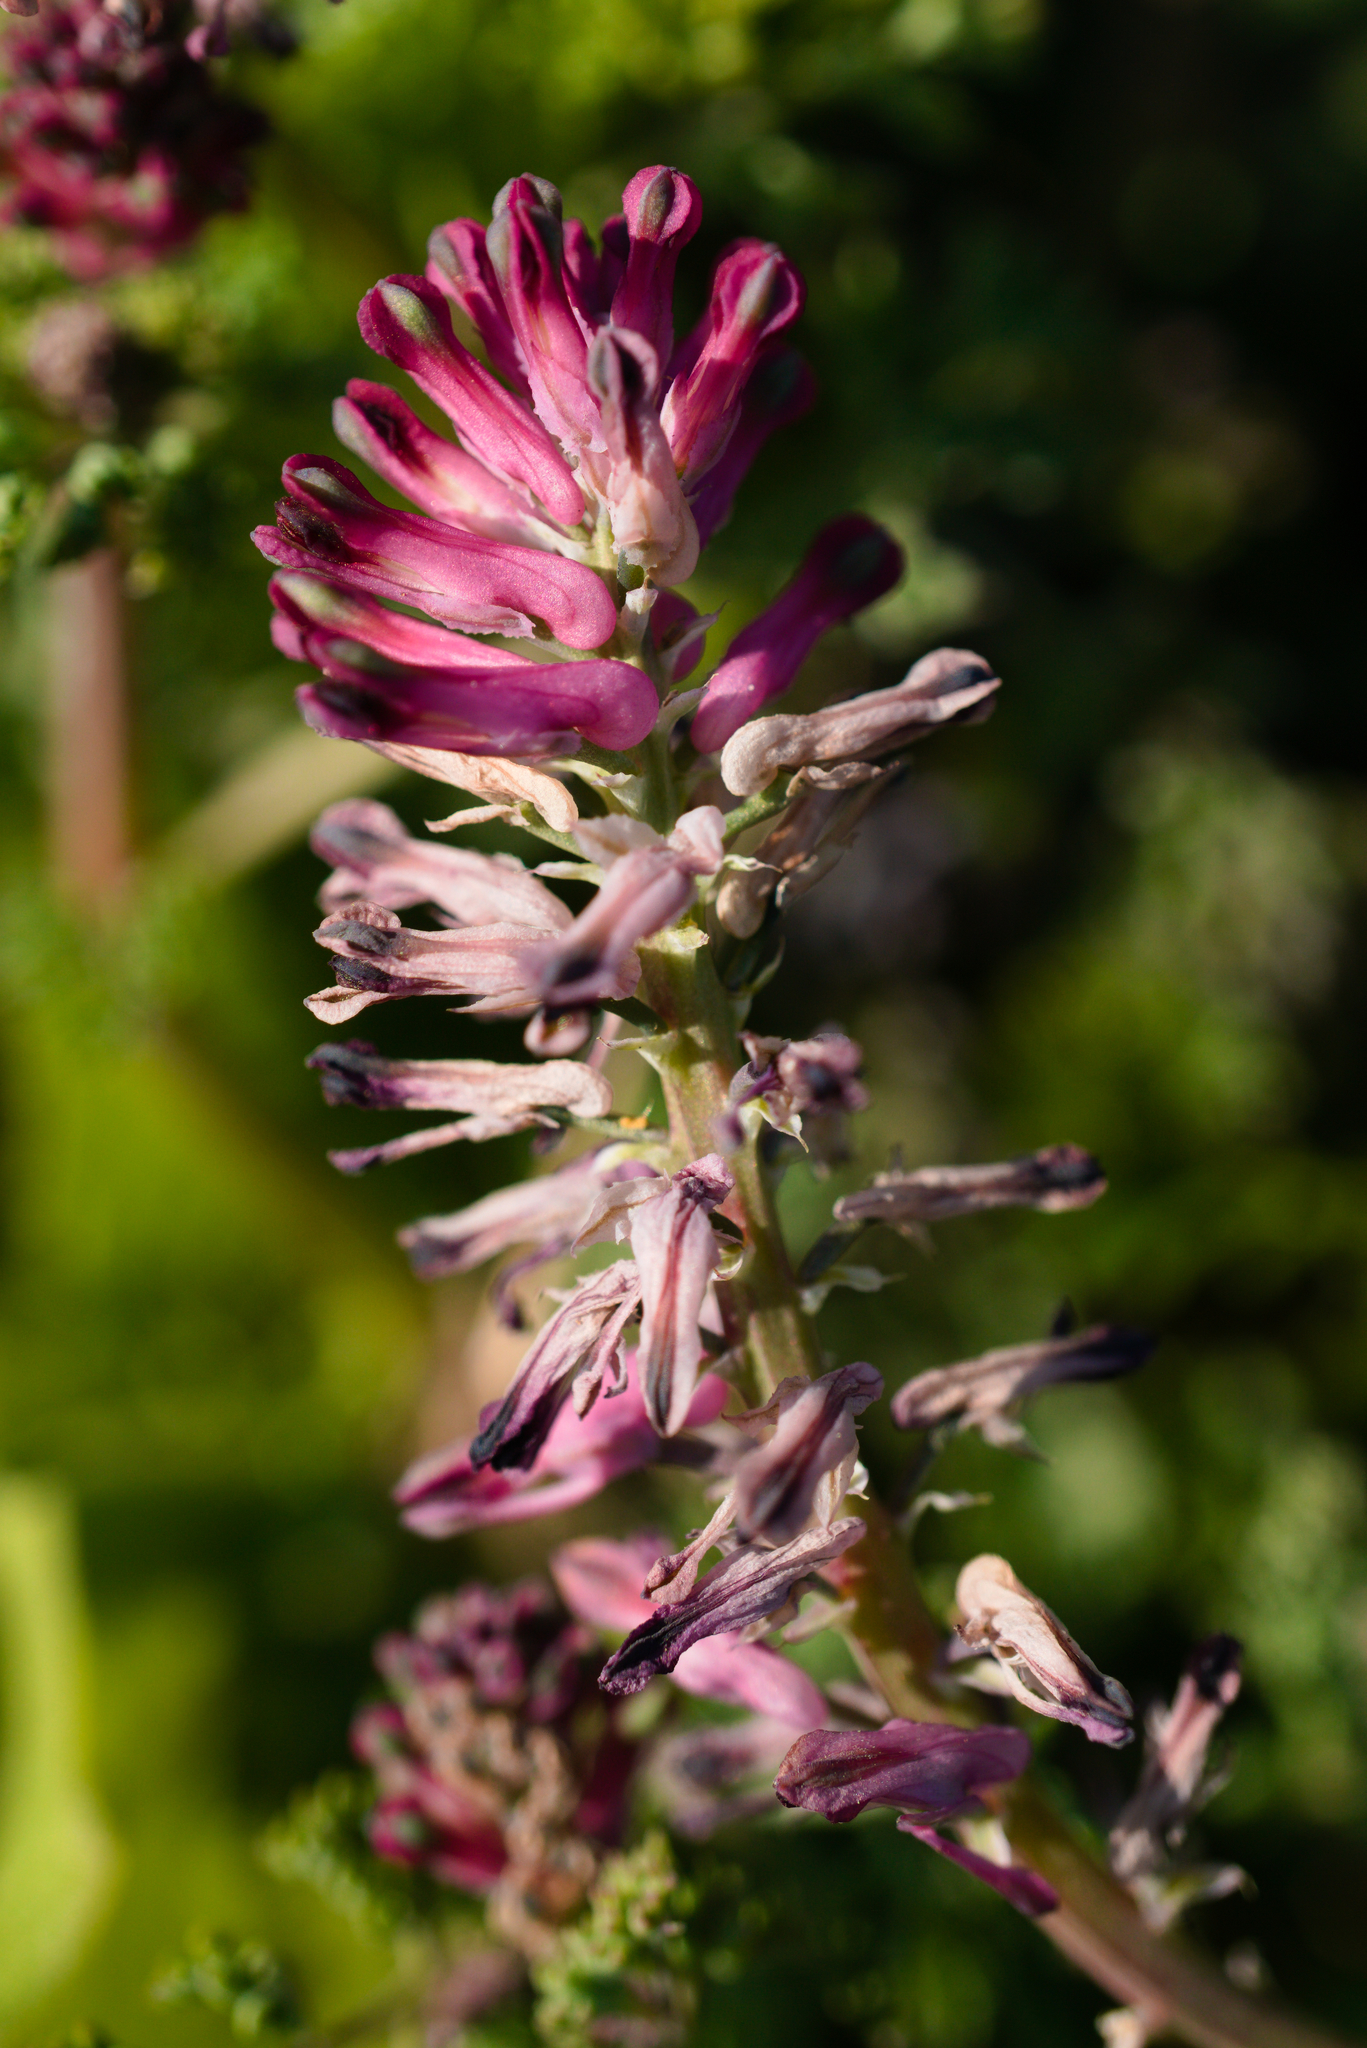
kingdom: Plantae
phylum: Tracheophyta
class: Magnoliopsida
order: Ranunculales
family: Papaveraceae
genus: Fumaria
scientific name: Fumaria officinalis
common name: Common fumitory
